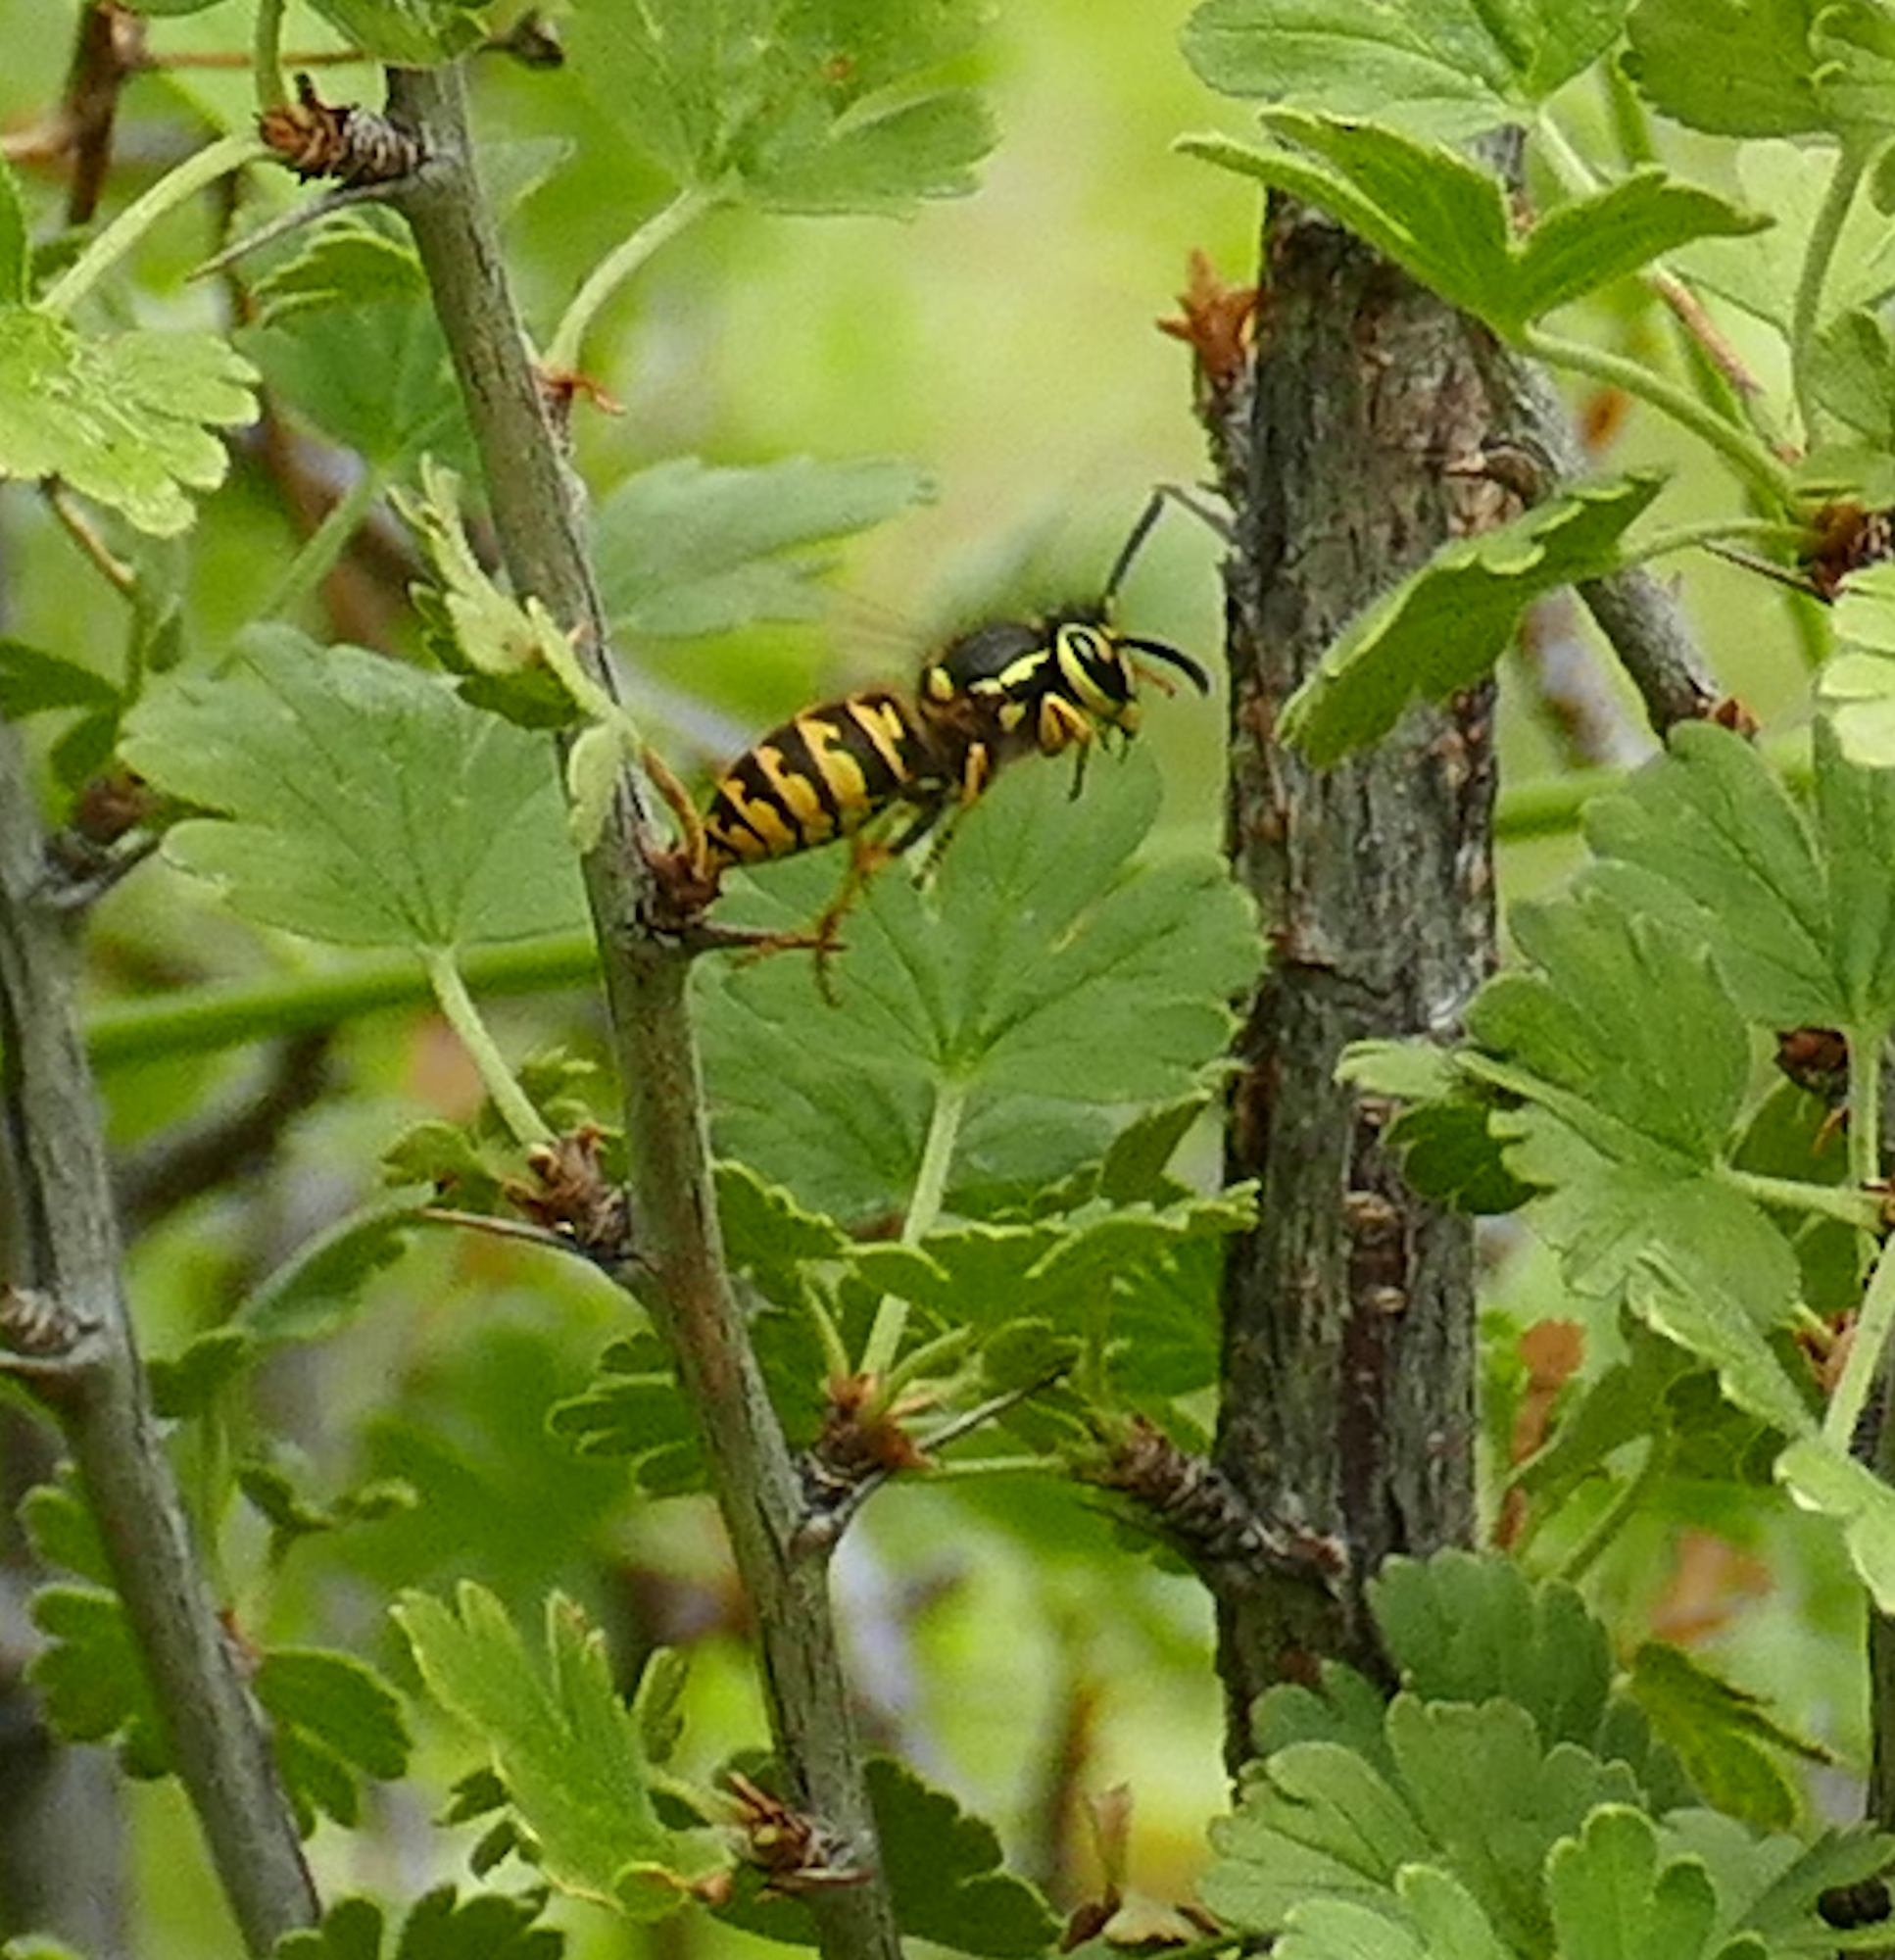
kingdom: Animalia
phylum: Arthropoda
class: Insecta
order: Hymenoptera
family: Vespidae
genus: Vespula
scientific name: Vespula pensylvanica
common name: Western yellowjacket
